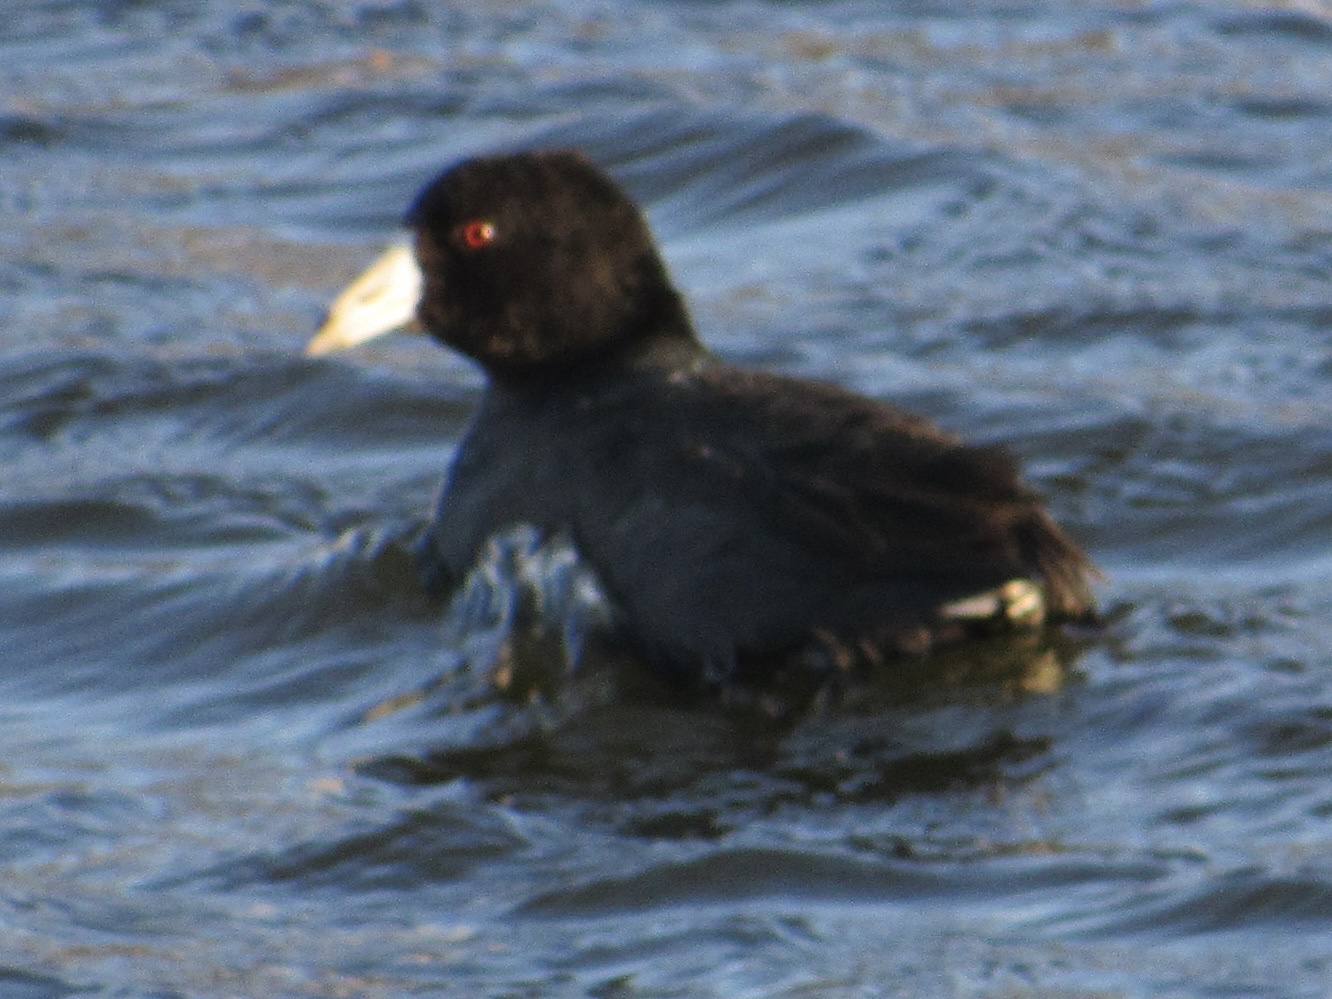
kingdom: Animalia
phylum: Chordata
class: Aves
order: Gruiformes
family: Rallidae
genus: Fulica
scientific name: Fulica americana
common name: American coot
